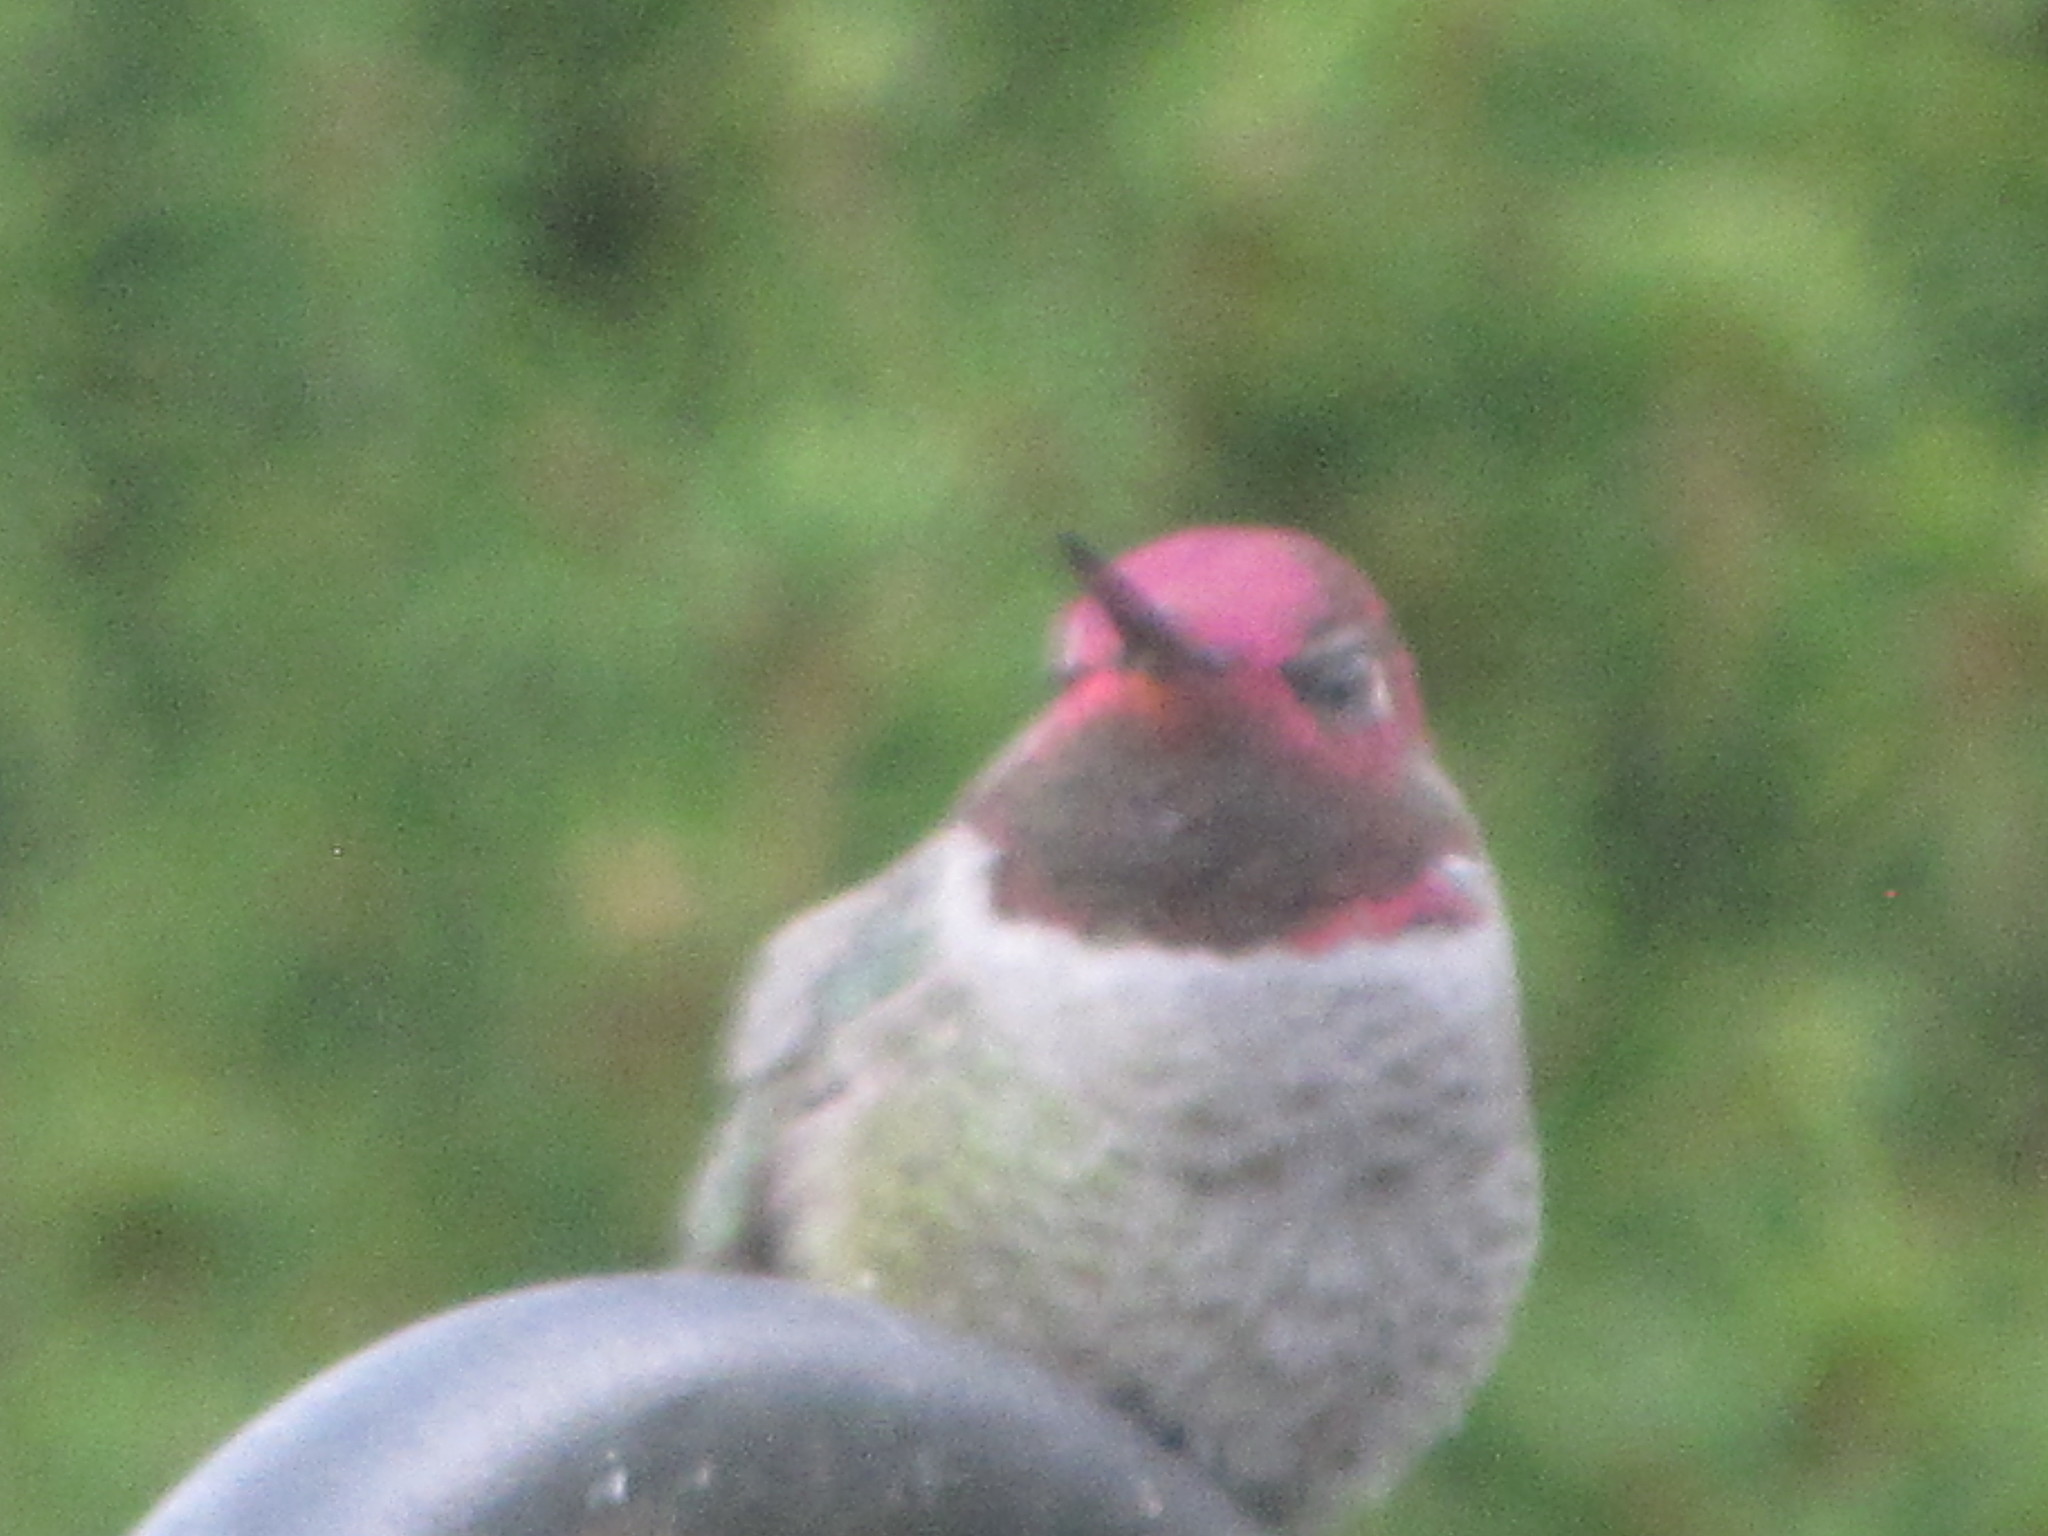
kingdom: Animalia
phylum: Chordata
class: Aves
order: Apodiformes
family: Trochilidae
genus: Calypte
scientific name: Calypte anna
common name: Anna's hummingbird
